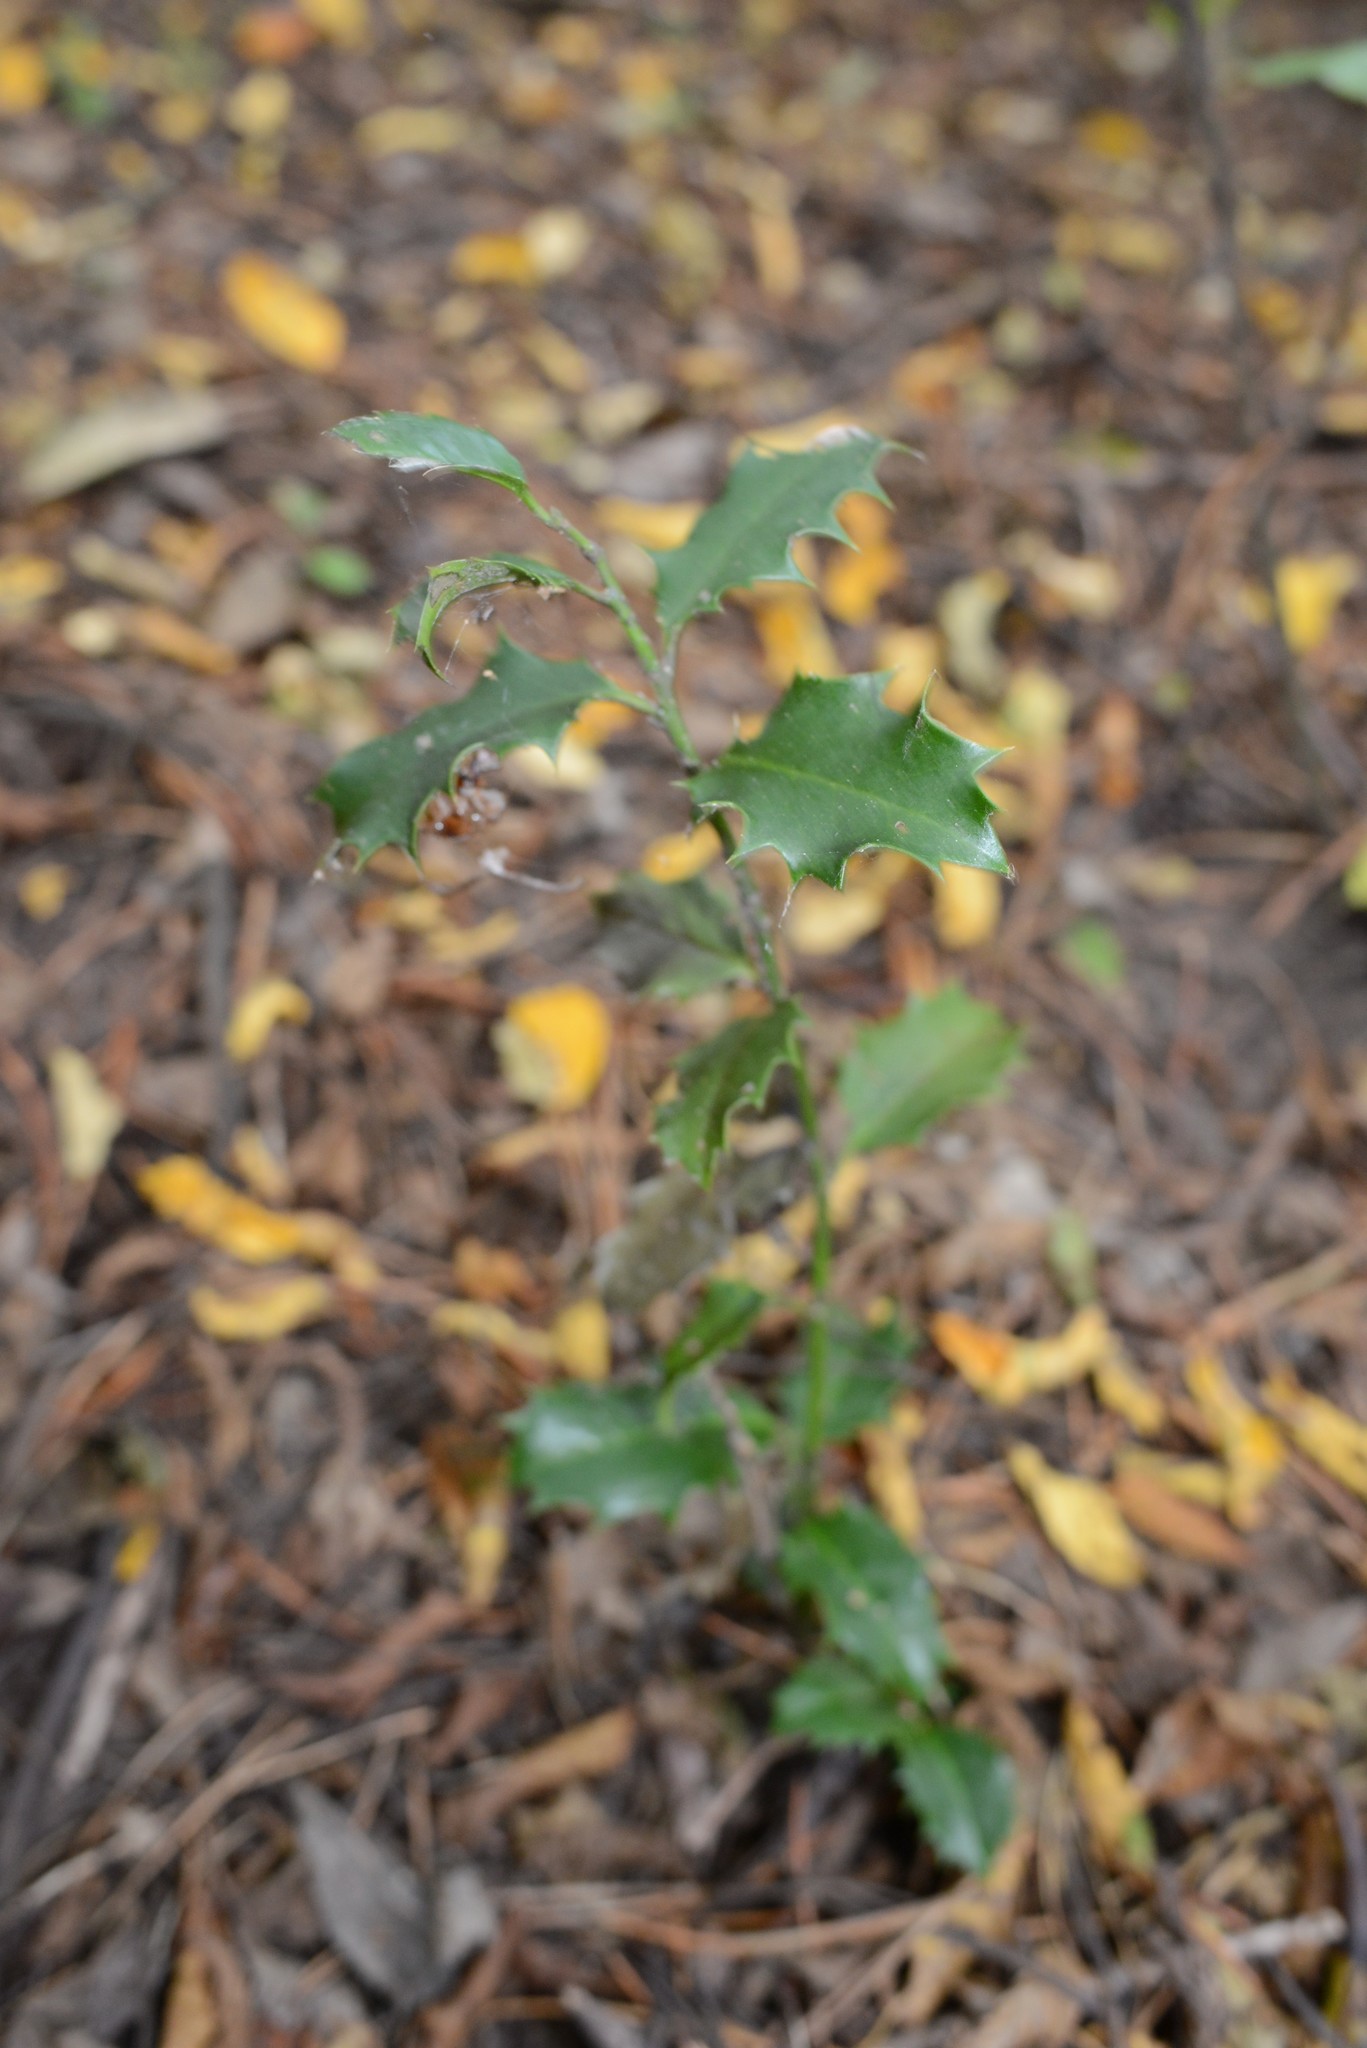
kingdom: Plantae
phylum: Tracheophyta
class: Magnoliopsida
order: Aquifoliales
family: Aquifoliaceae
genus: Ilex
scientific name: Ilex aquifolium
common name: English holly
